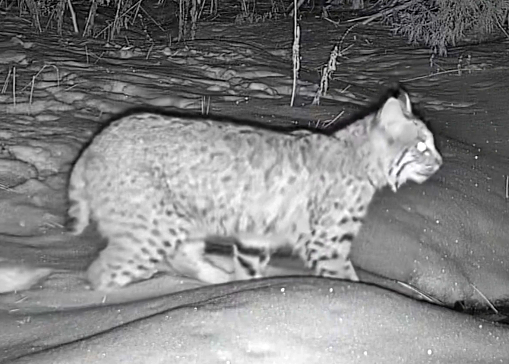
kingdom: Animalia
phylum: Chordata
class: Mammalia
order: Carnivora
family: Felidae
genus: Lynx
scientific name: Lynx rufus
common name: Bobcat
